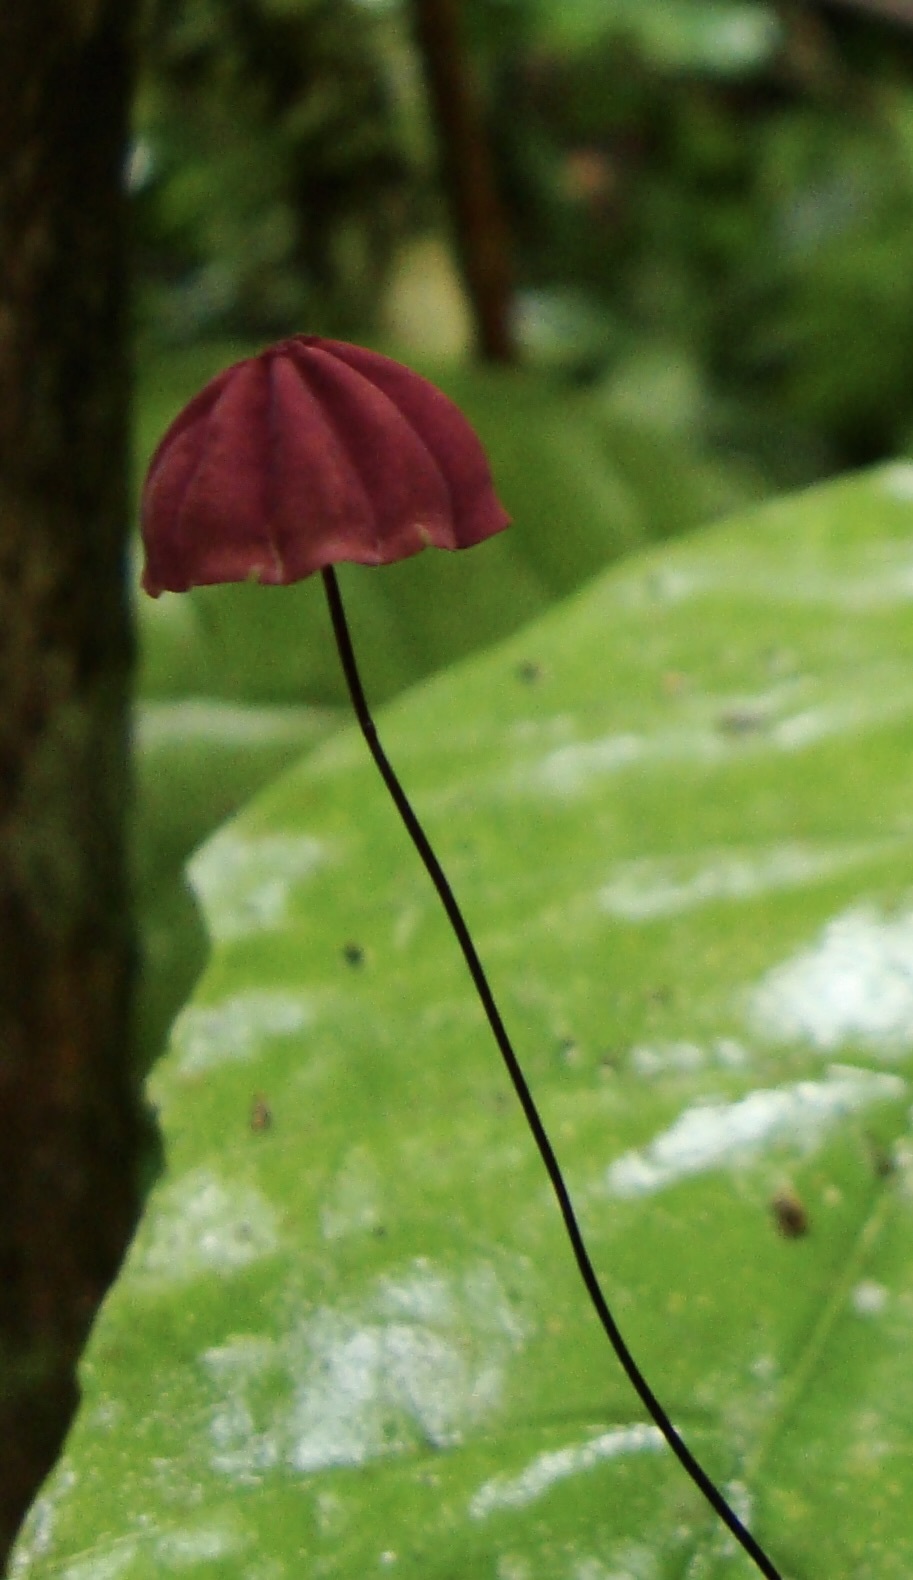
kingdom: Fungi
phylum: Basidiomycota
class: Agaricomycetes
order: Agaricales
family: Marasmiaceae
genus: Marasmius
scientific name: Marasmius haematocephalus
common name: Purple pinwheel
